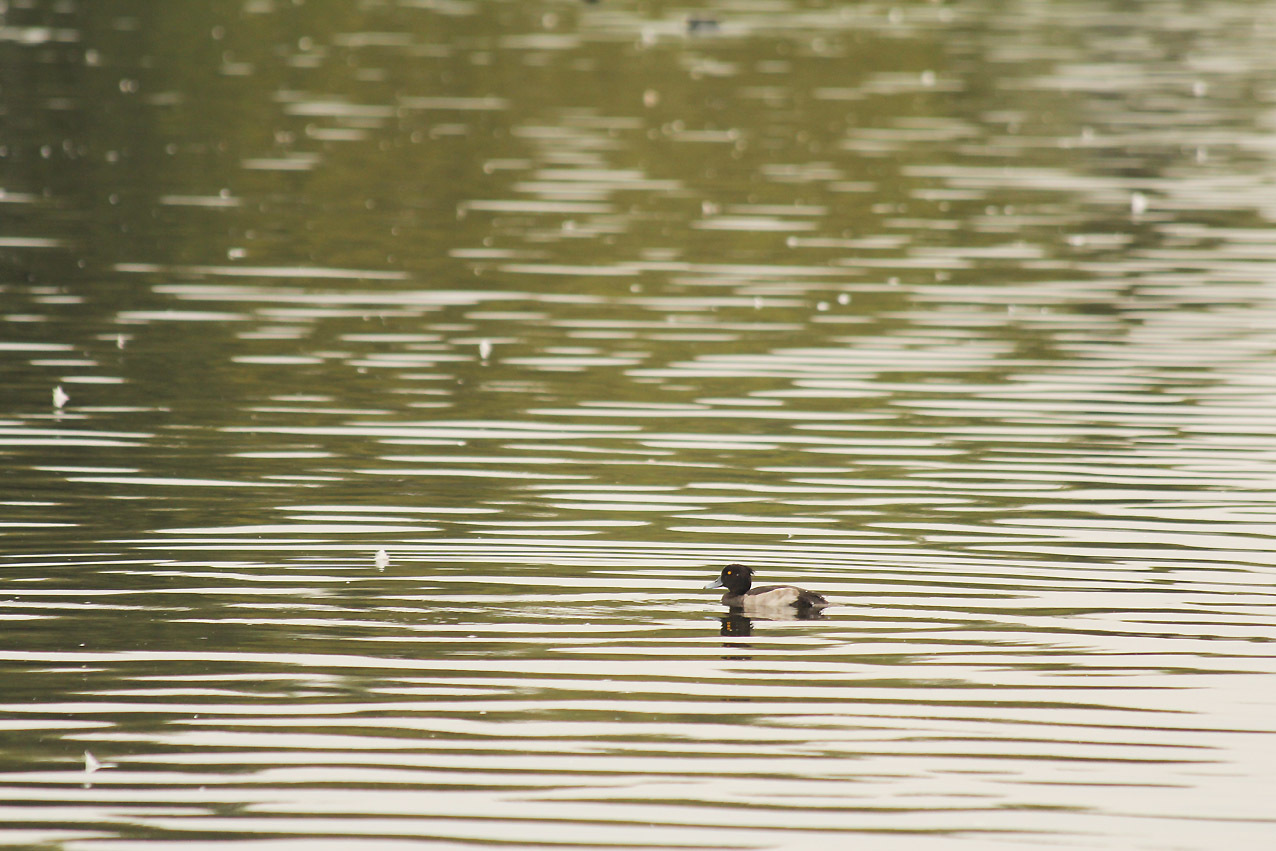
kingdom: Animalia
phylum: Chordata
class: Aves
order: Anseriformes
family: Anatidae
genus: Aythya
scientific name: Aythya fuligula
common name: Tufted duck
